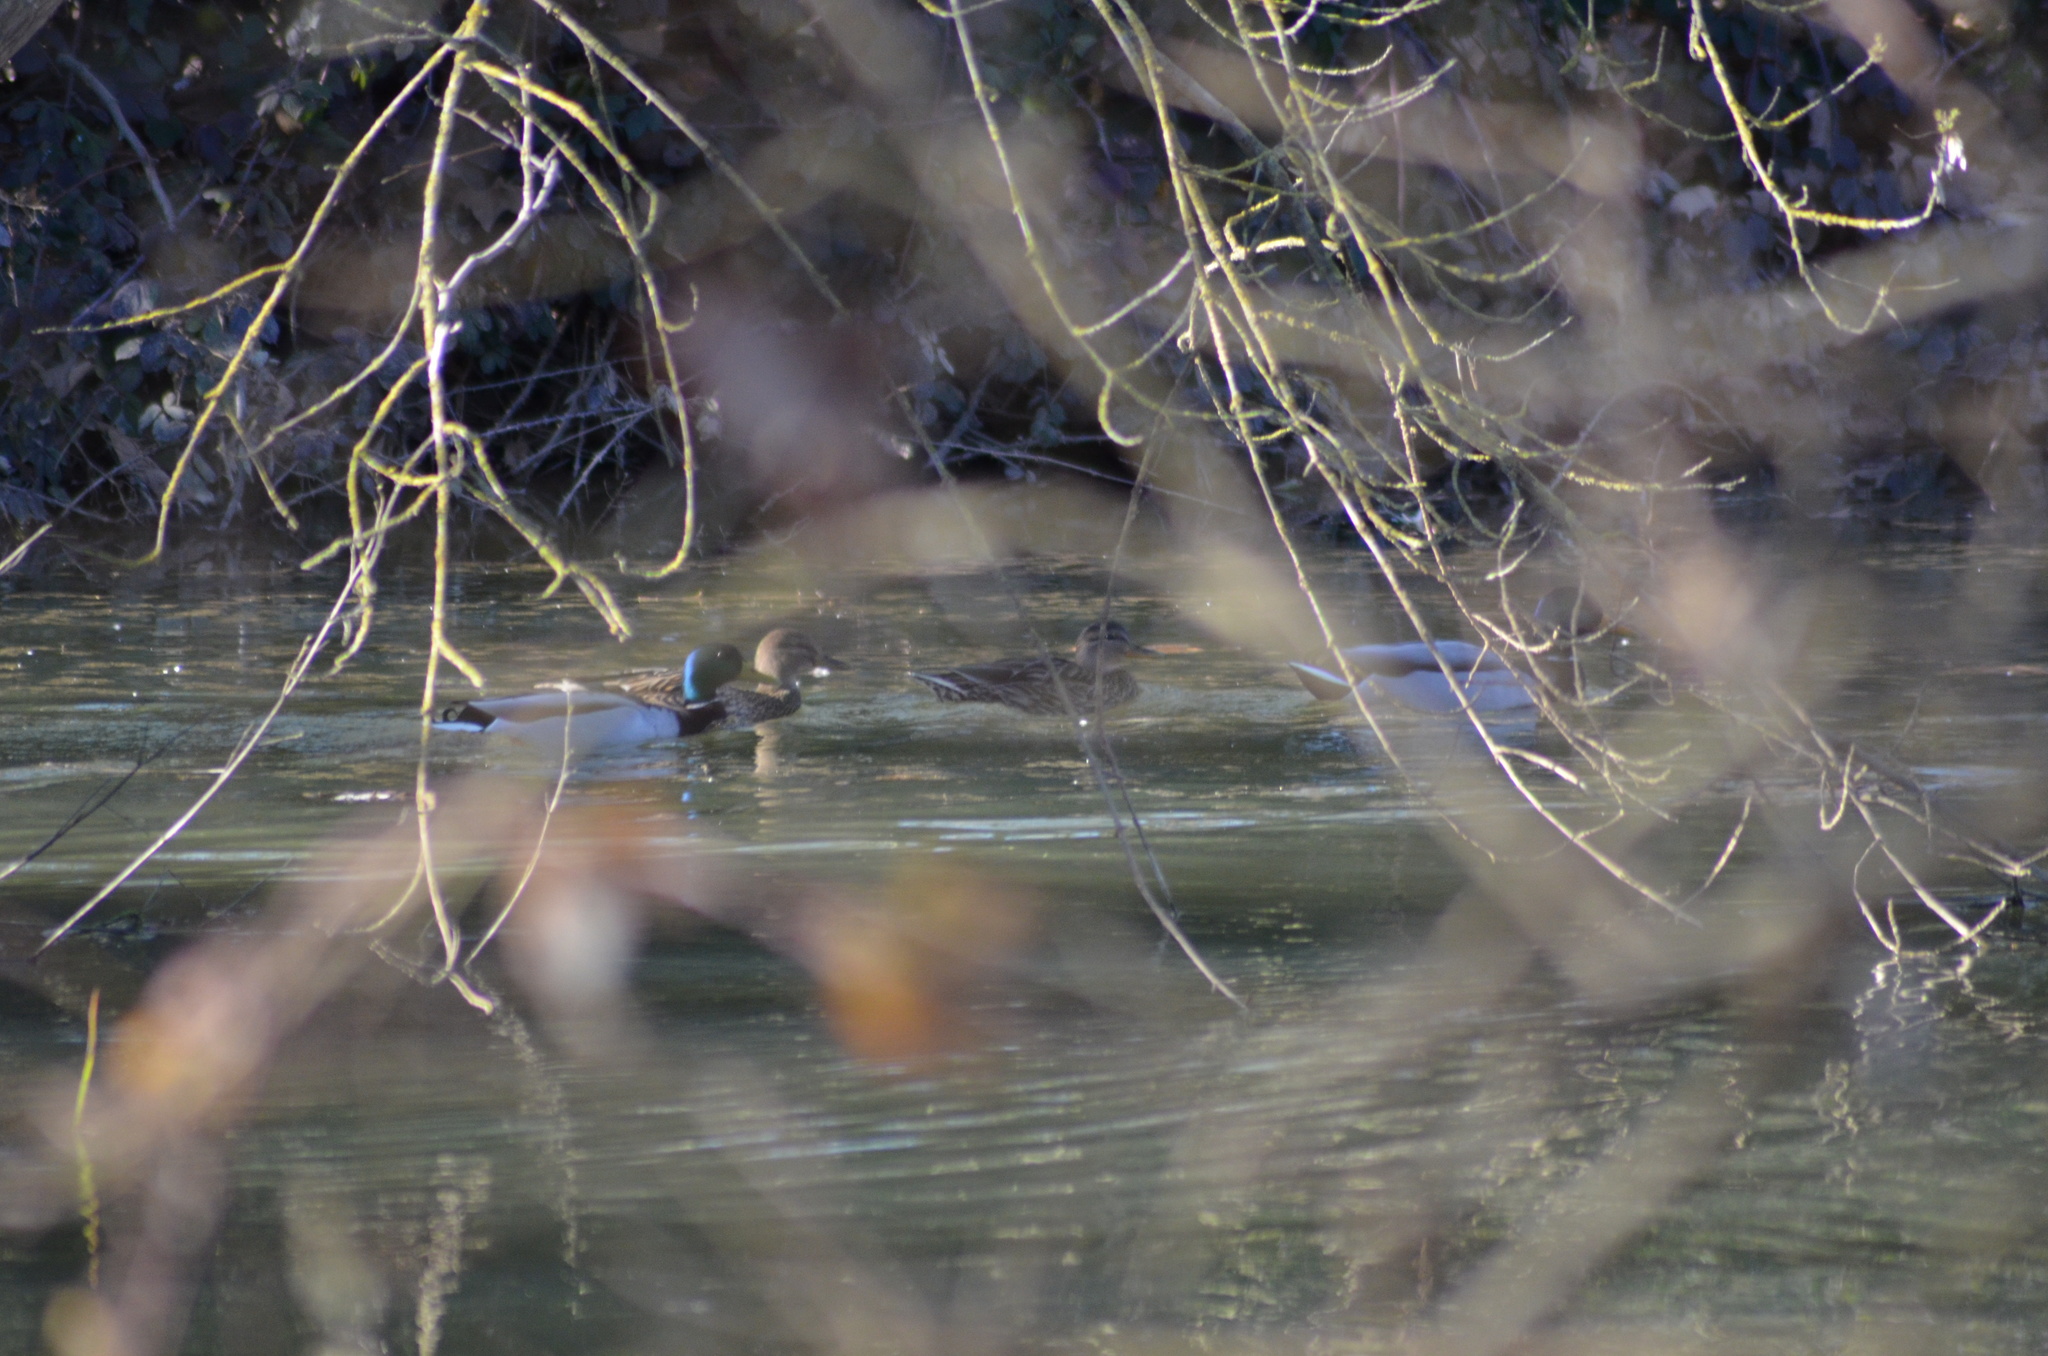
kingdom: Animalia
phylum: Chordata
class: Aves
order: Anseriformes
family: Anatidae
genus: Anas
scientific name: Anas platyrhynchos
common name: Mallard
